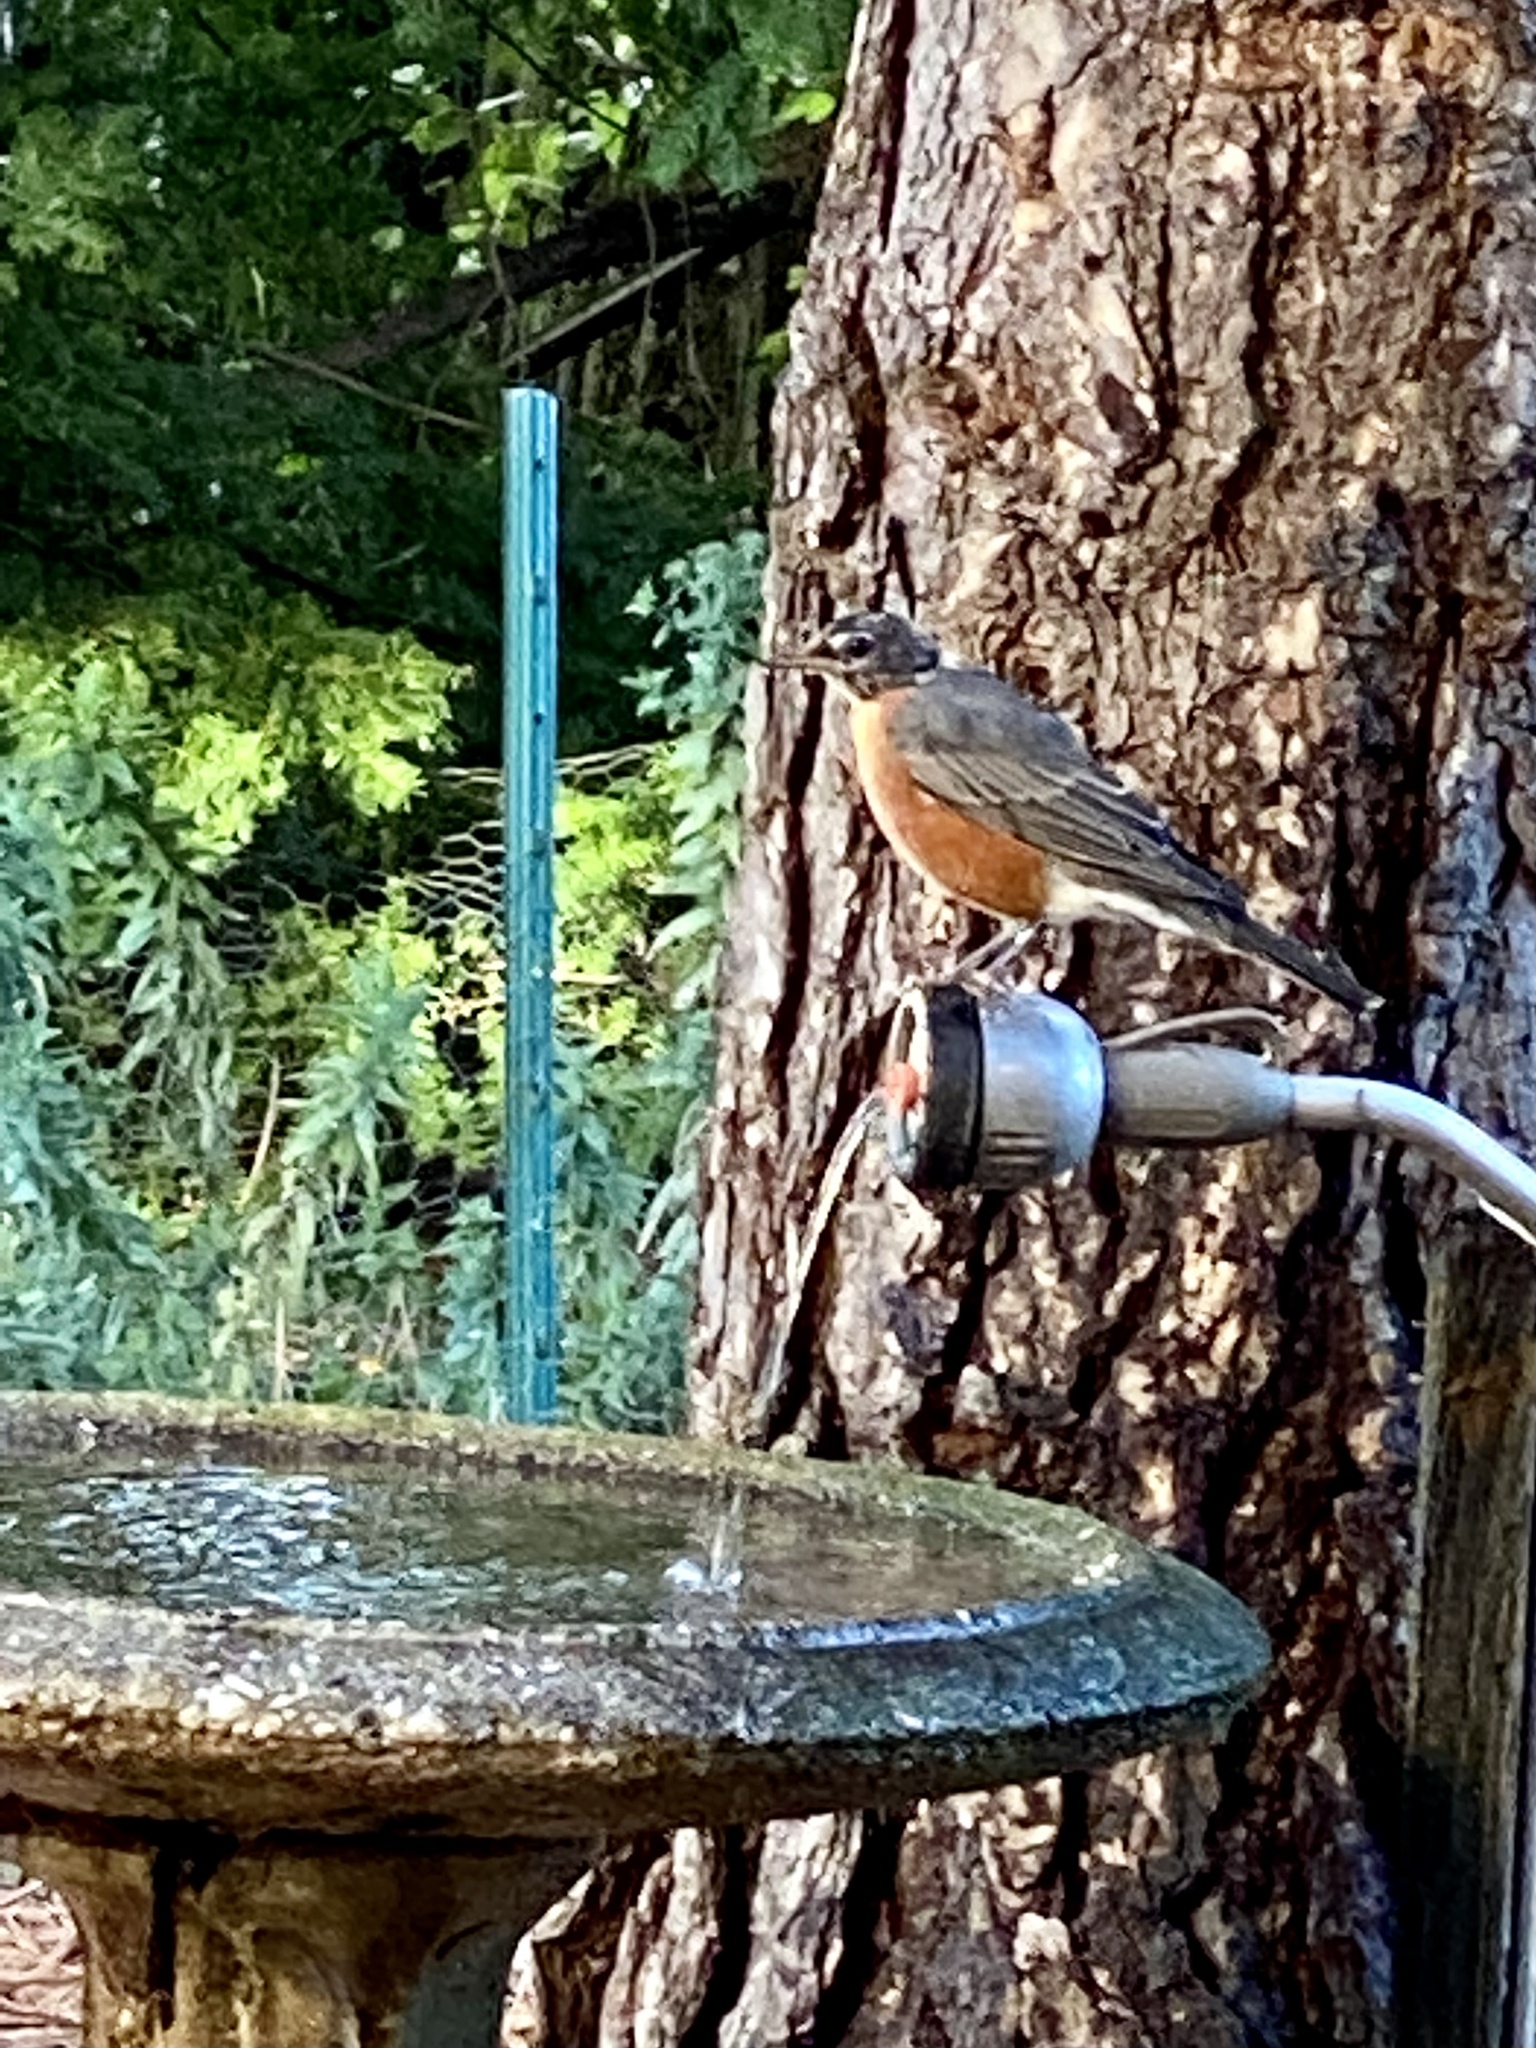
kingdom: Animalia
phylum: Chordata
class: Aves
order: Passeriformes
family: Turdidae
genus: Turdus
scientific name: Turdus migratorius
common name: American robin
